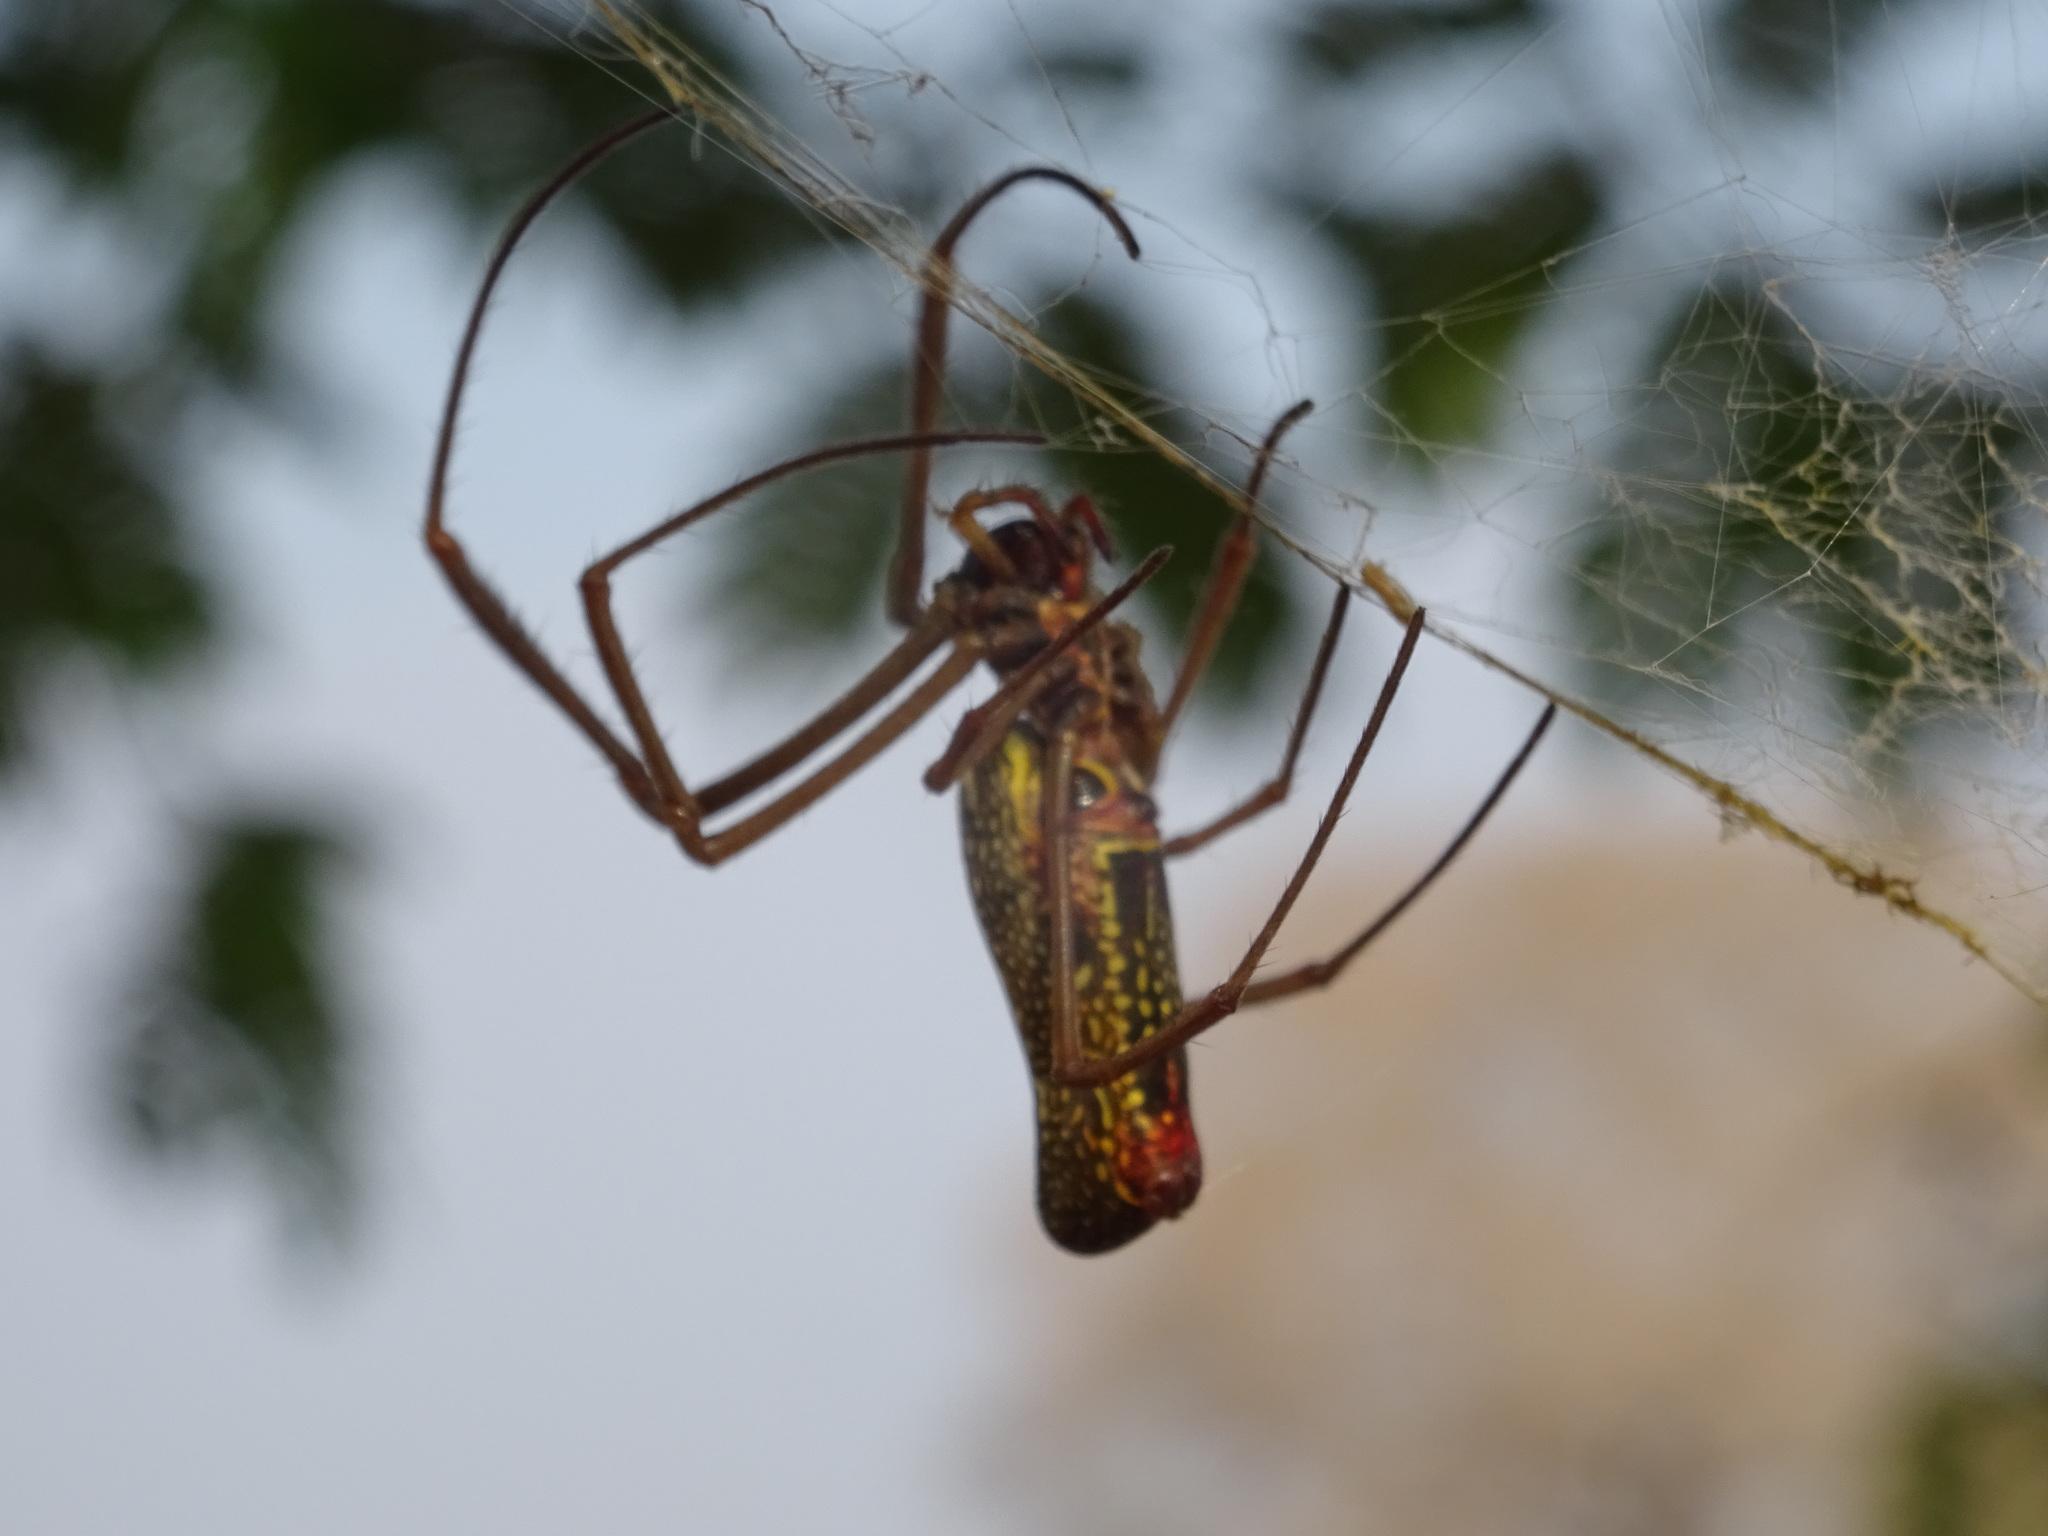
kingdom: Animalia
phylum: Arthropoda
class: Arachnida
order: Araneae
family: Araneidae
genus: Trichonephila
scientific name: Trichonephila clavipes
